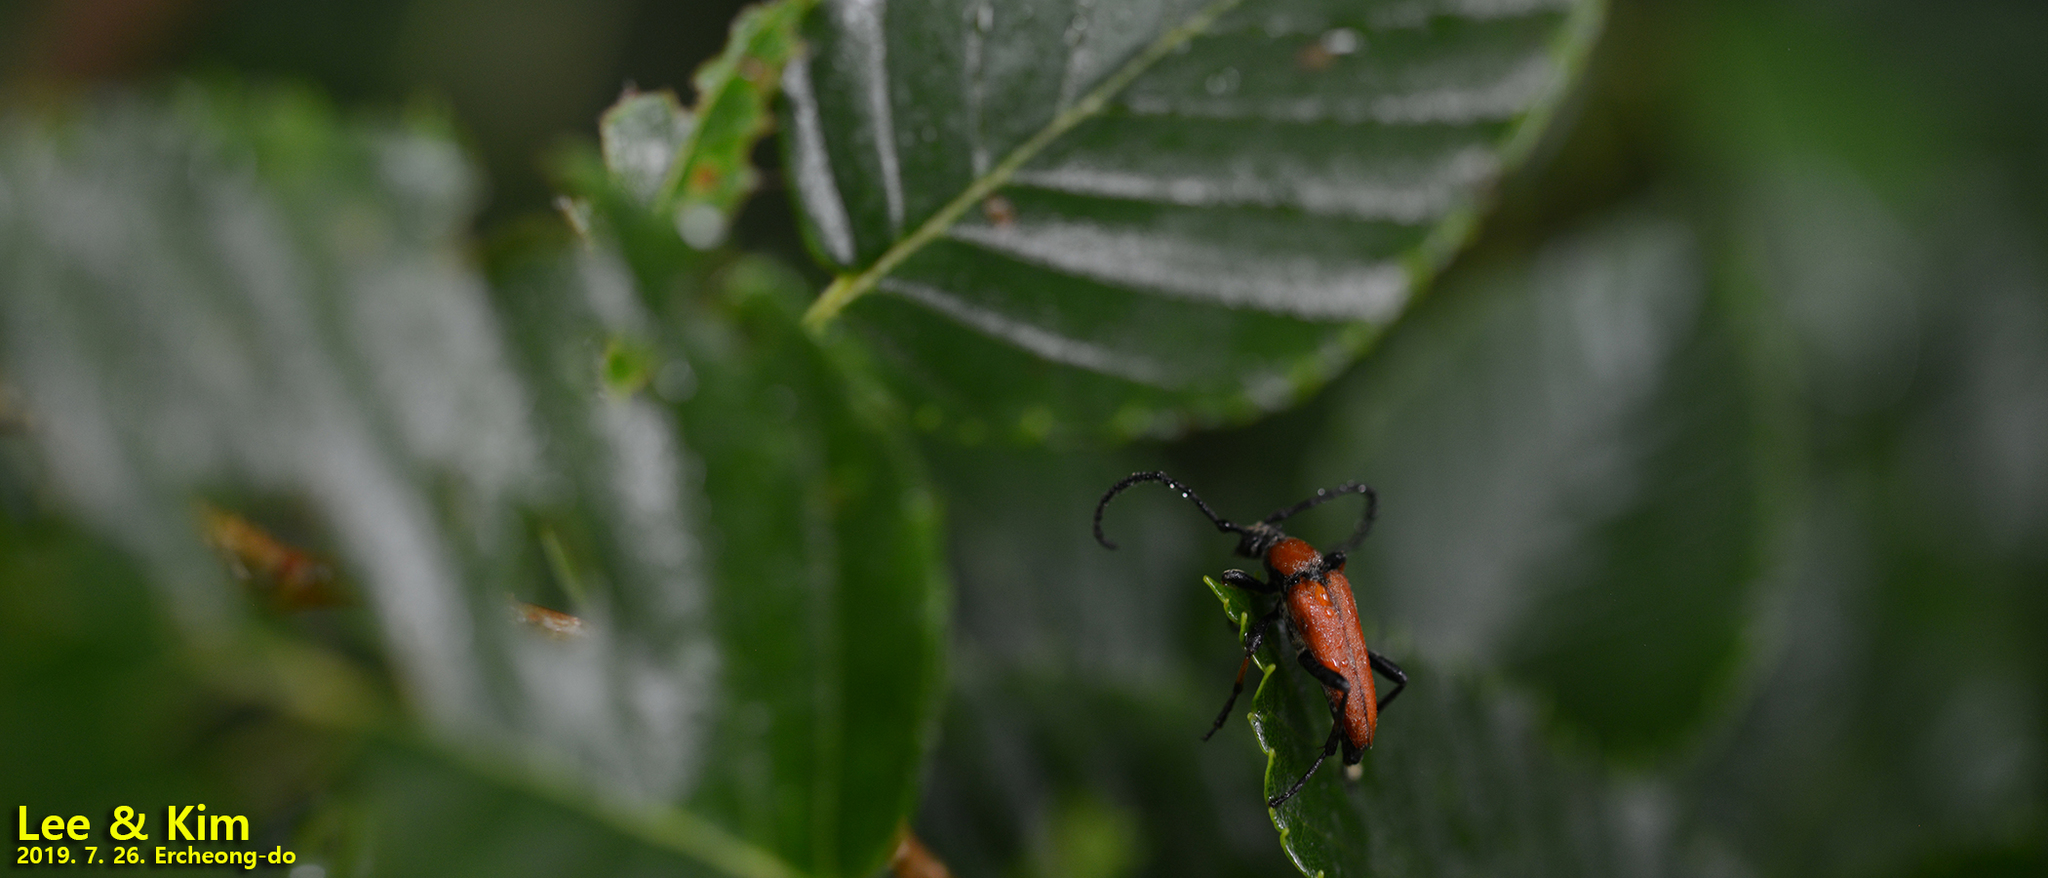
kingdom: Animalia
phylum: Arthropoda
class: Insecta
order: Coleoptera
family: Cerambycidae
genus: Stictoleptura
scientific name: Stictoleptura dichroa
